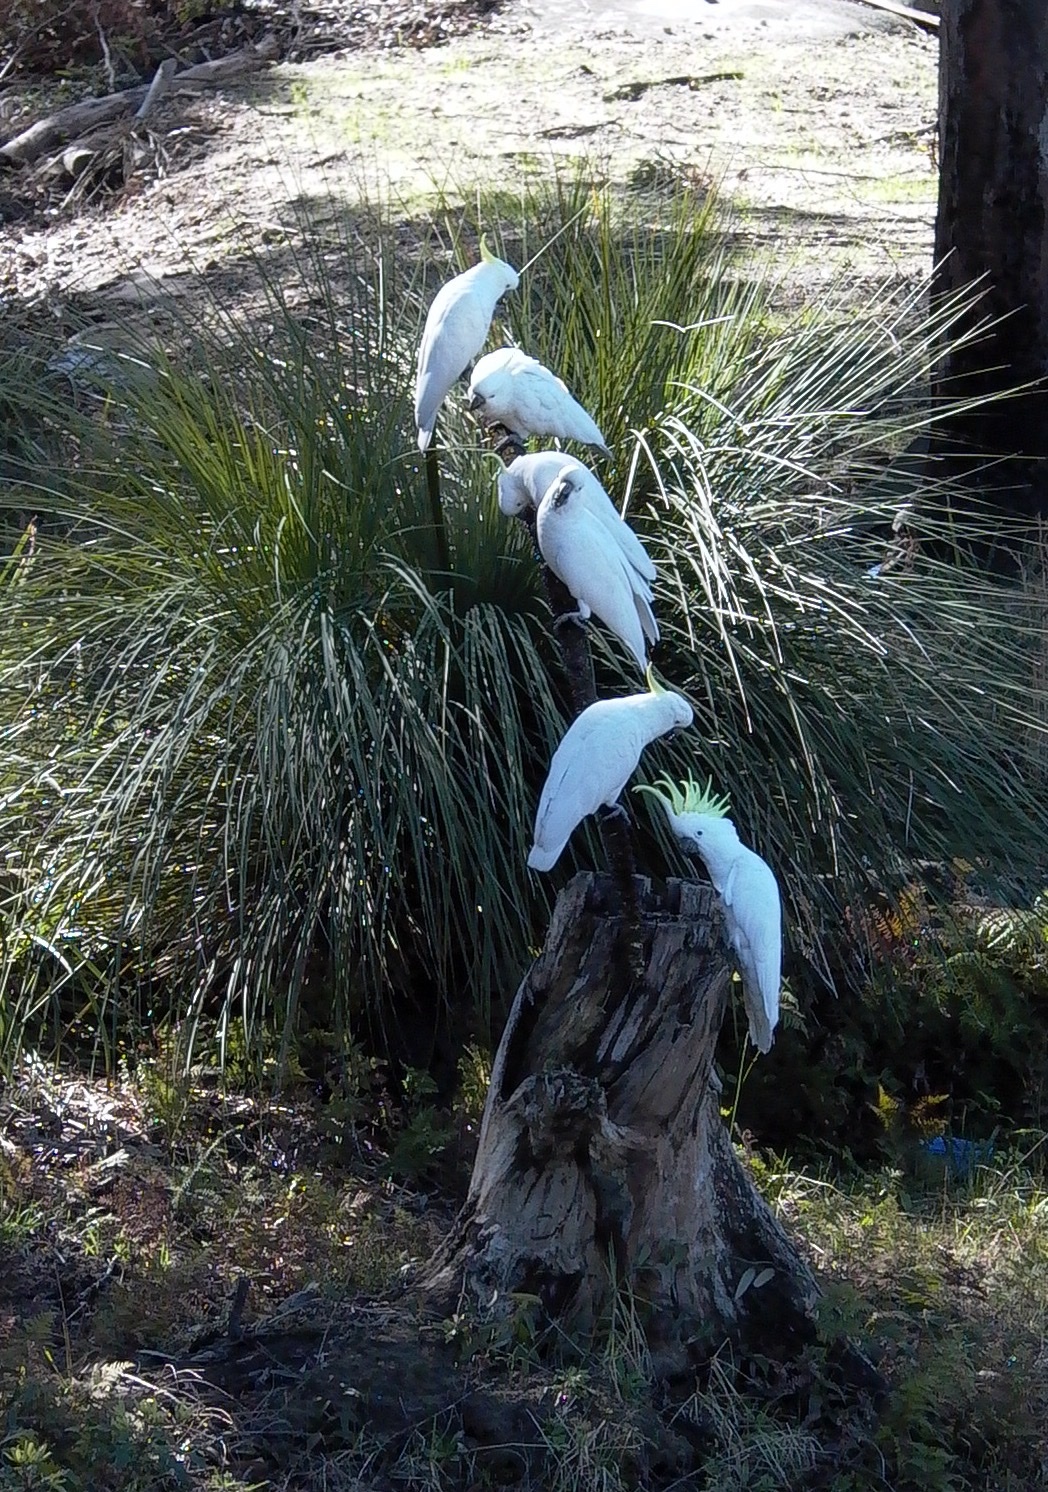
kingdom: Animalia
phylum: Chordata
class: Aves
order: Psittaciformes
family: Psittacidae
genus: Cacatua
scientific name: Cacatua galerita
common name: Sulphur-crested cockatoo
